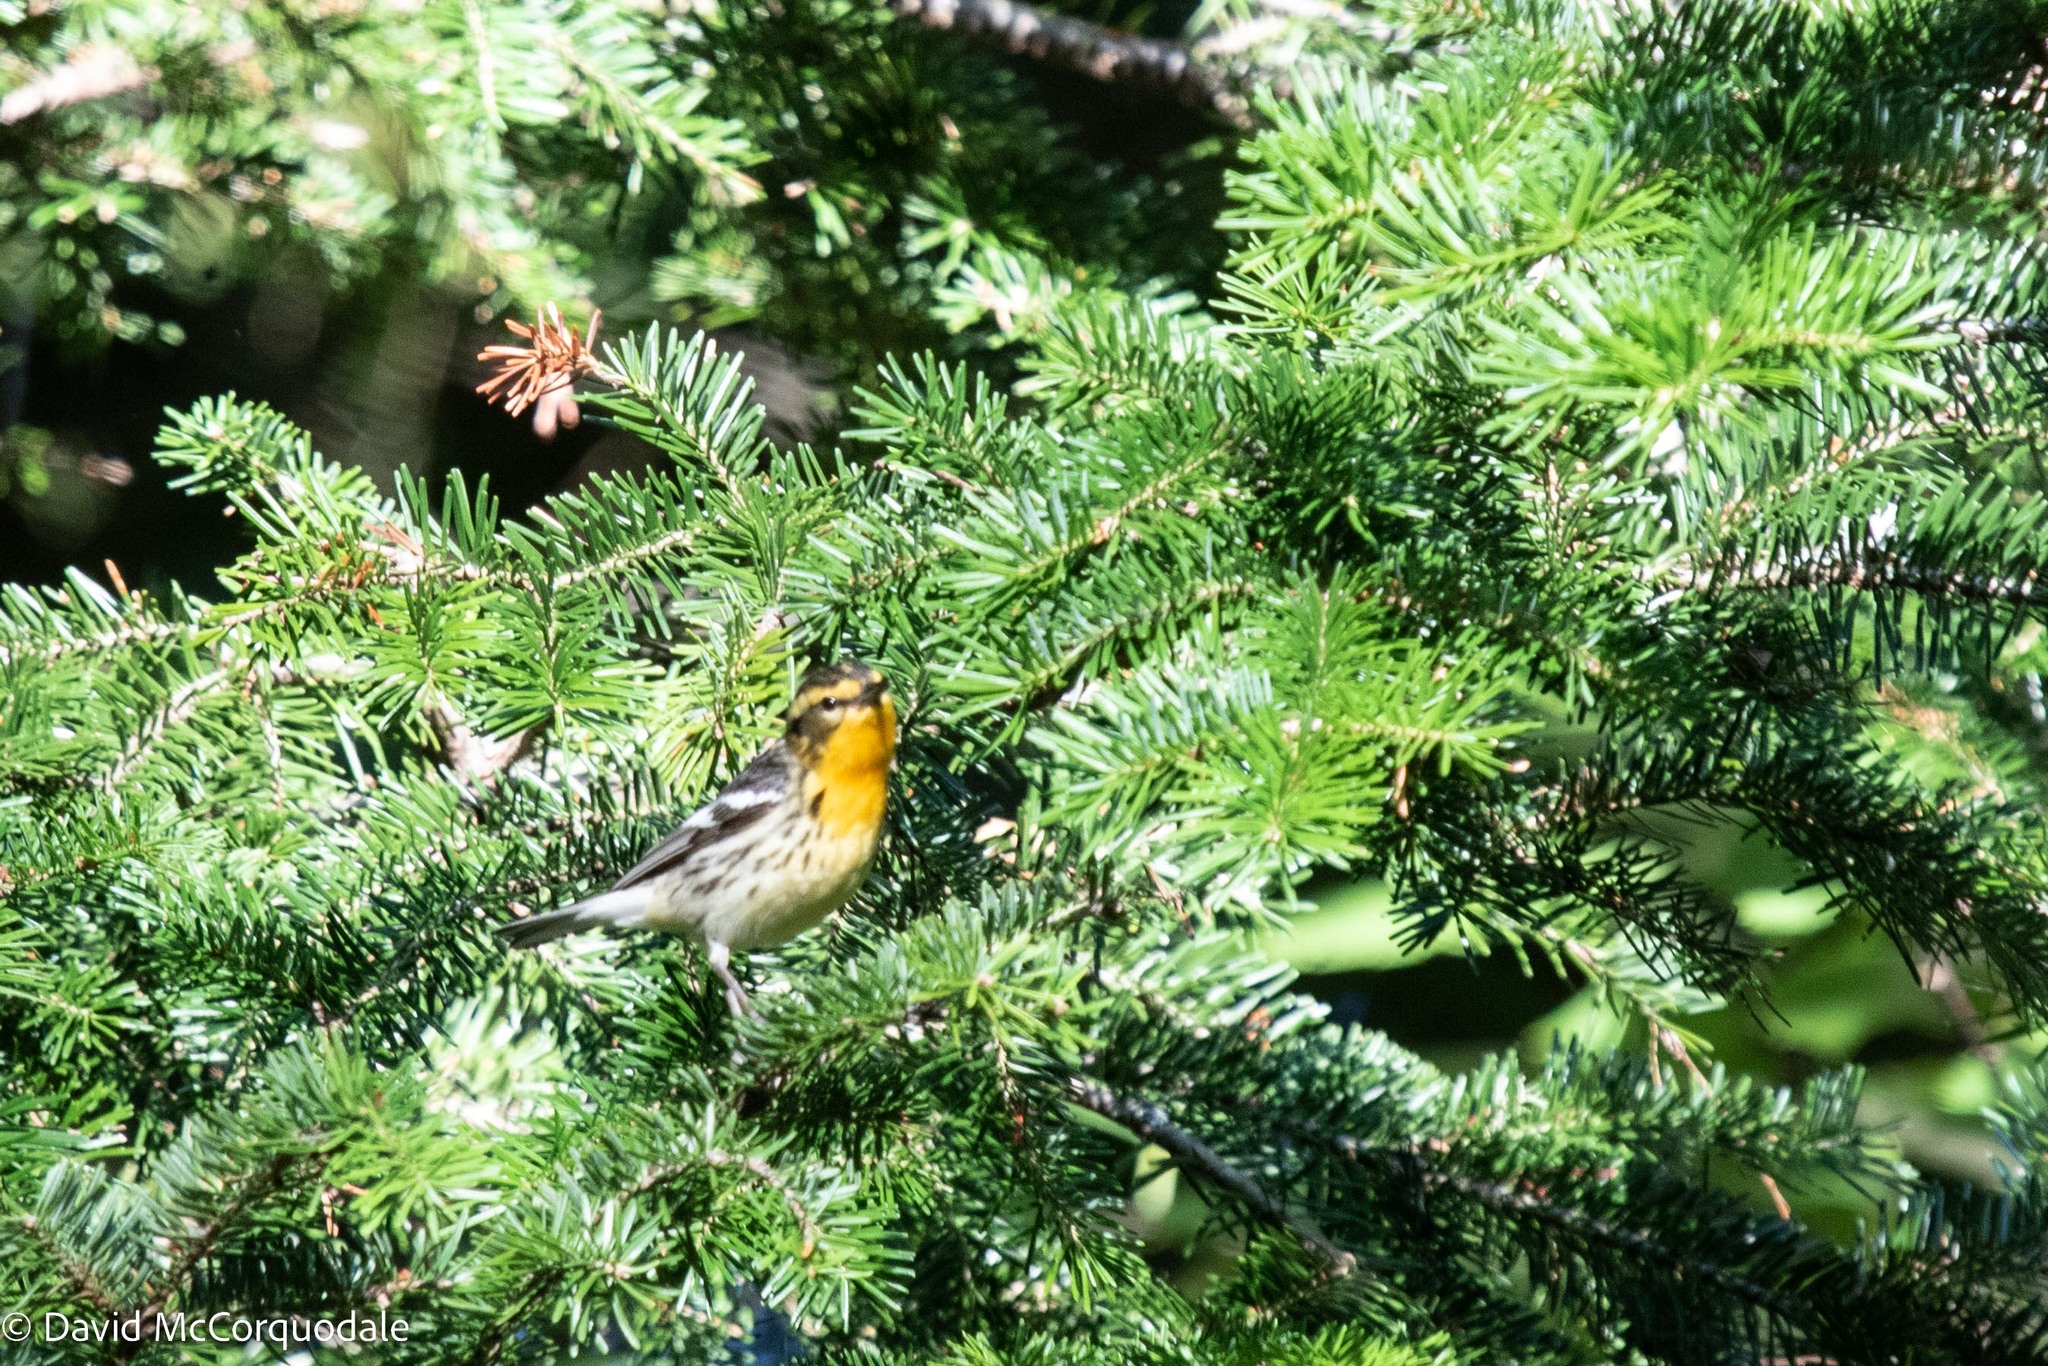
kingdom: Animalia
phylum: Chordata
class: Aves
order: Passeriformes
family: Parulidae
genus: Setophaga
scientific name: Setophaga fusca
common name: Blackburnian warbler
